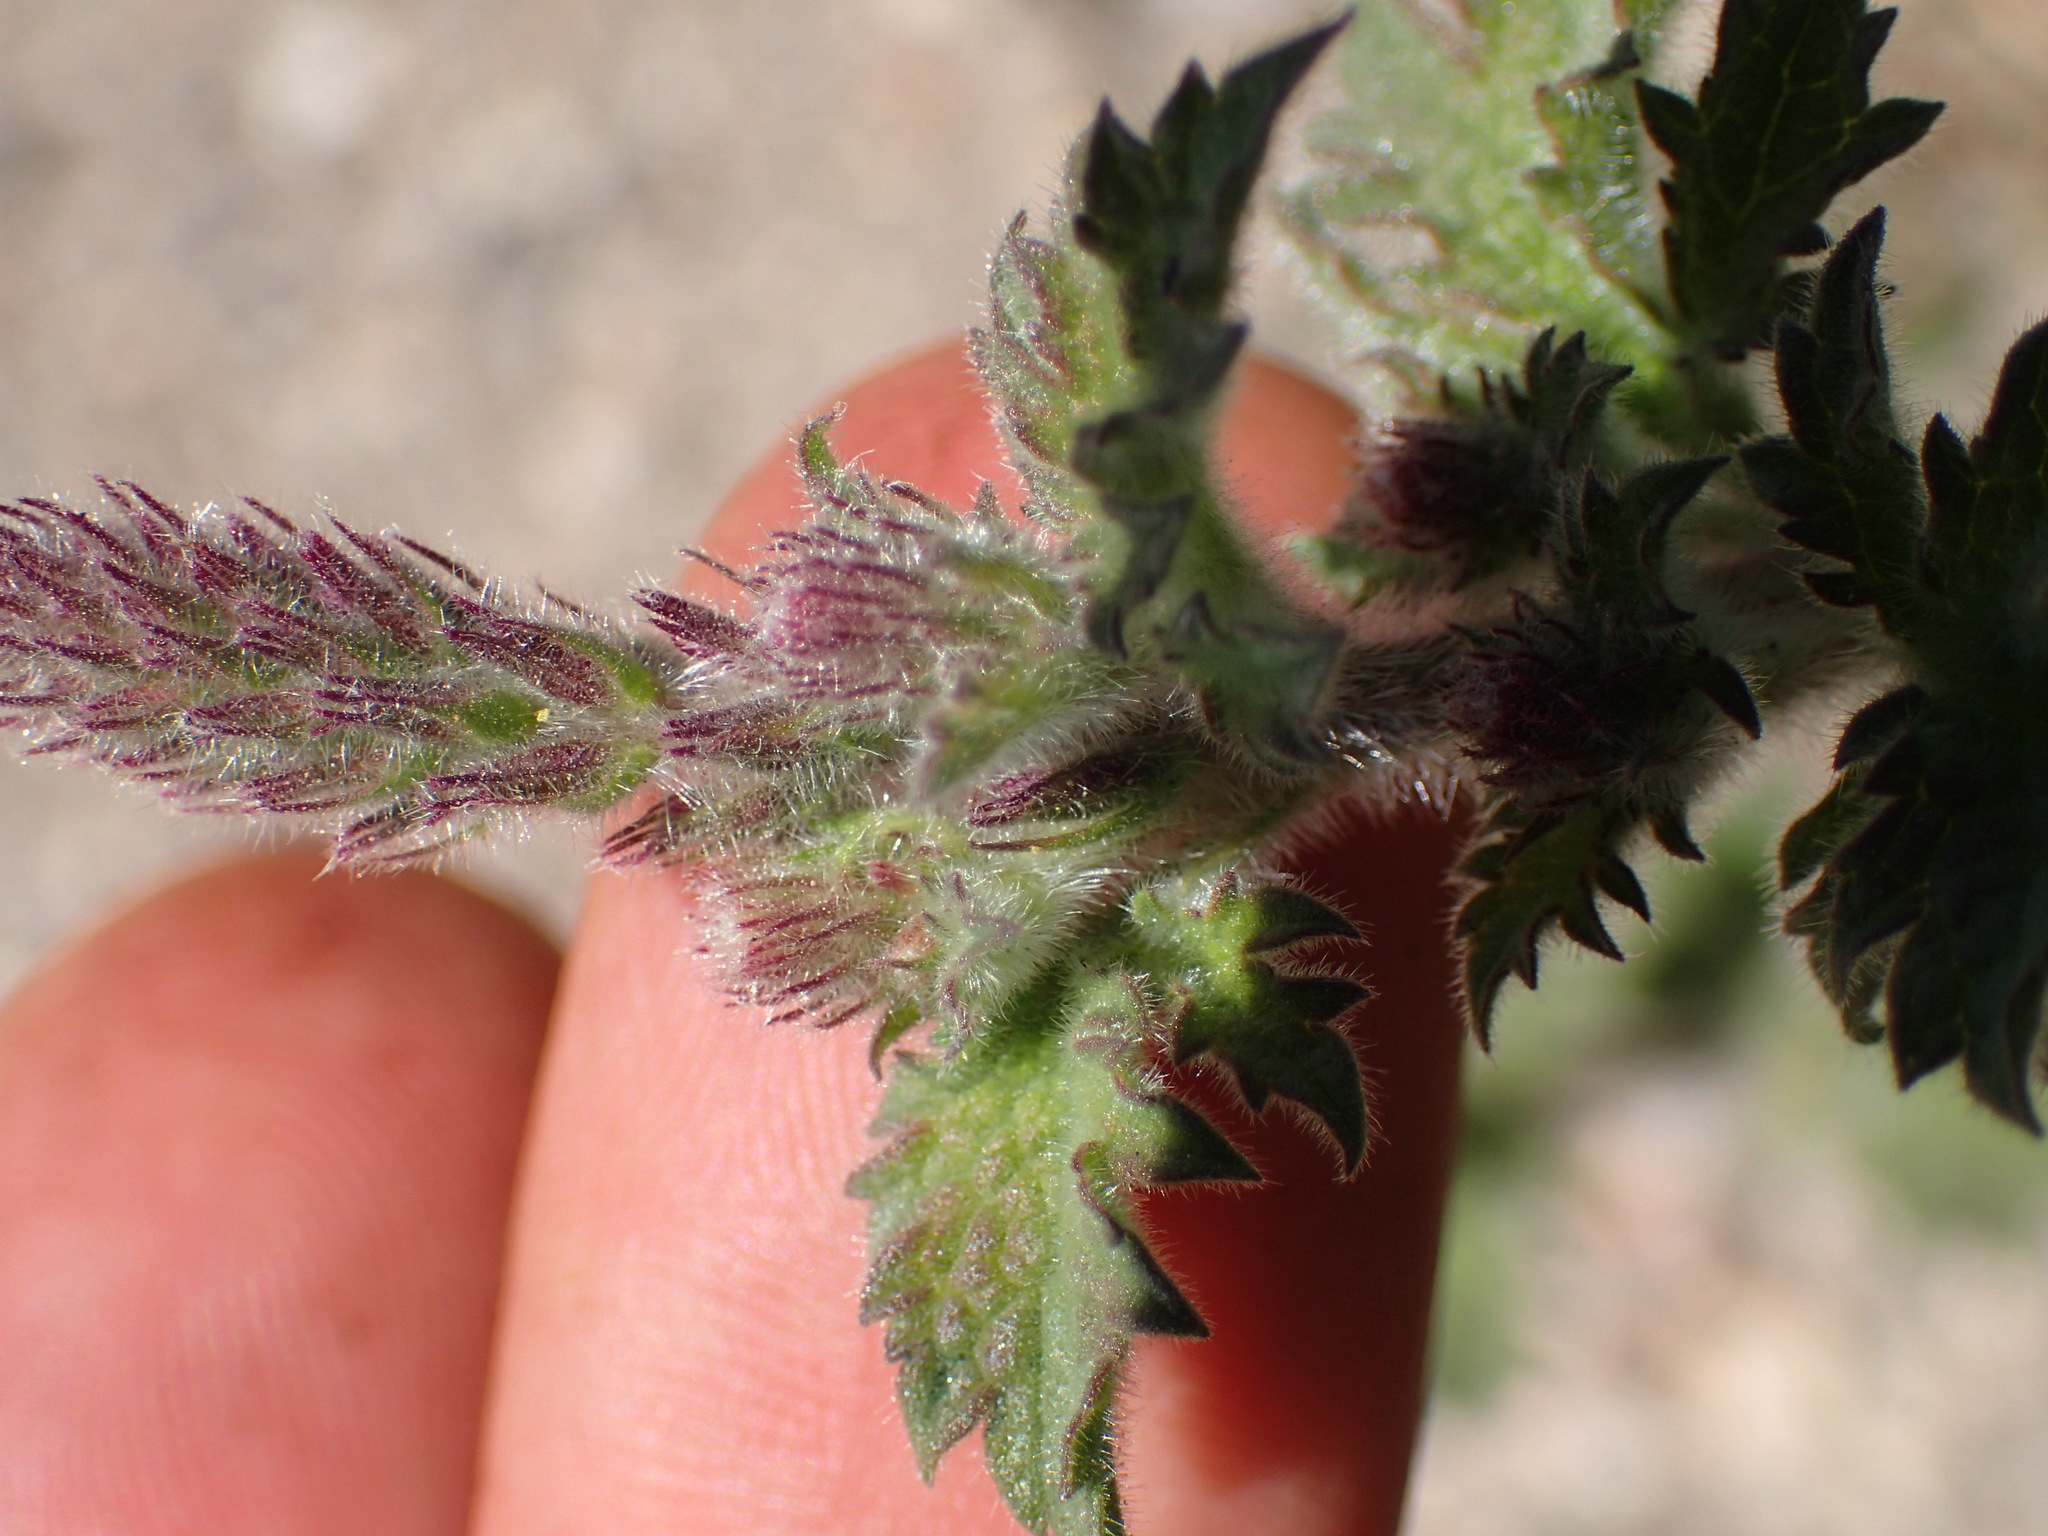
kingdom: Plantae
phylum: Tracheophyta
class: Magnoliopsida
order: Lamiales
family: Verbenaceae
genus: Verbena
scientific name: Verbena lasiostachys
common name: Vervain
